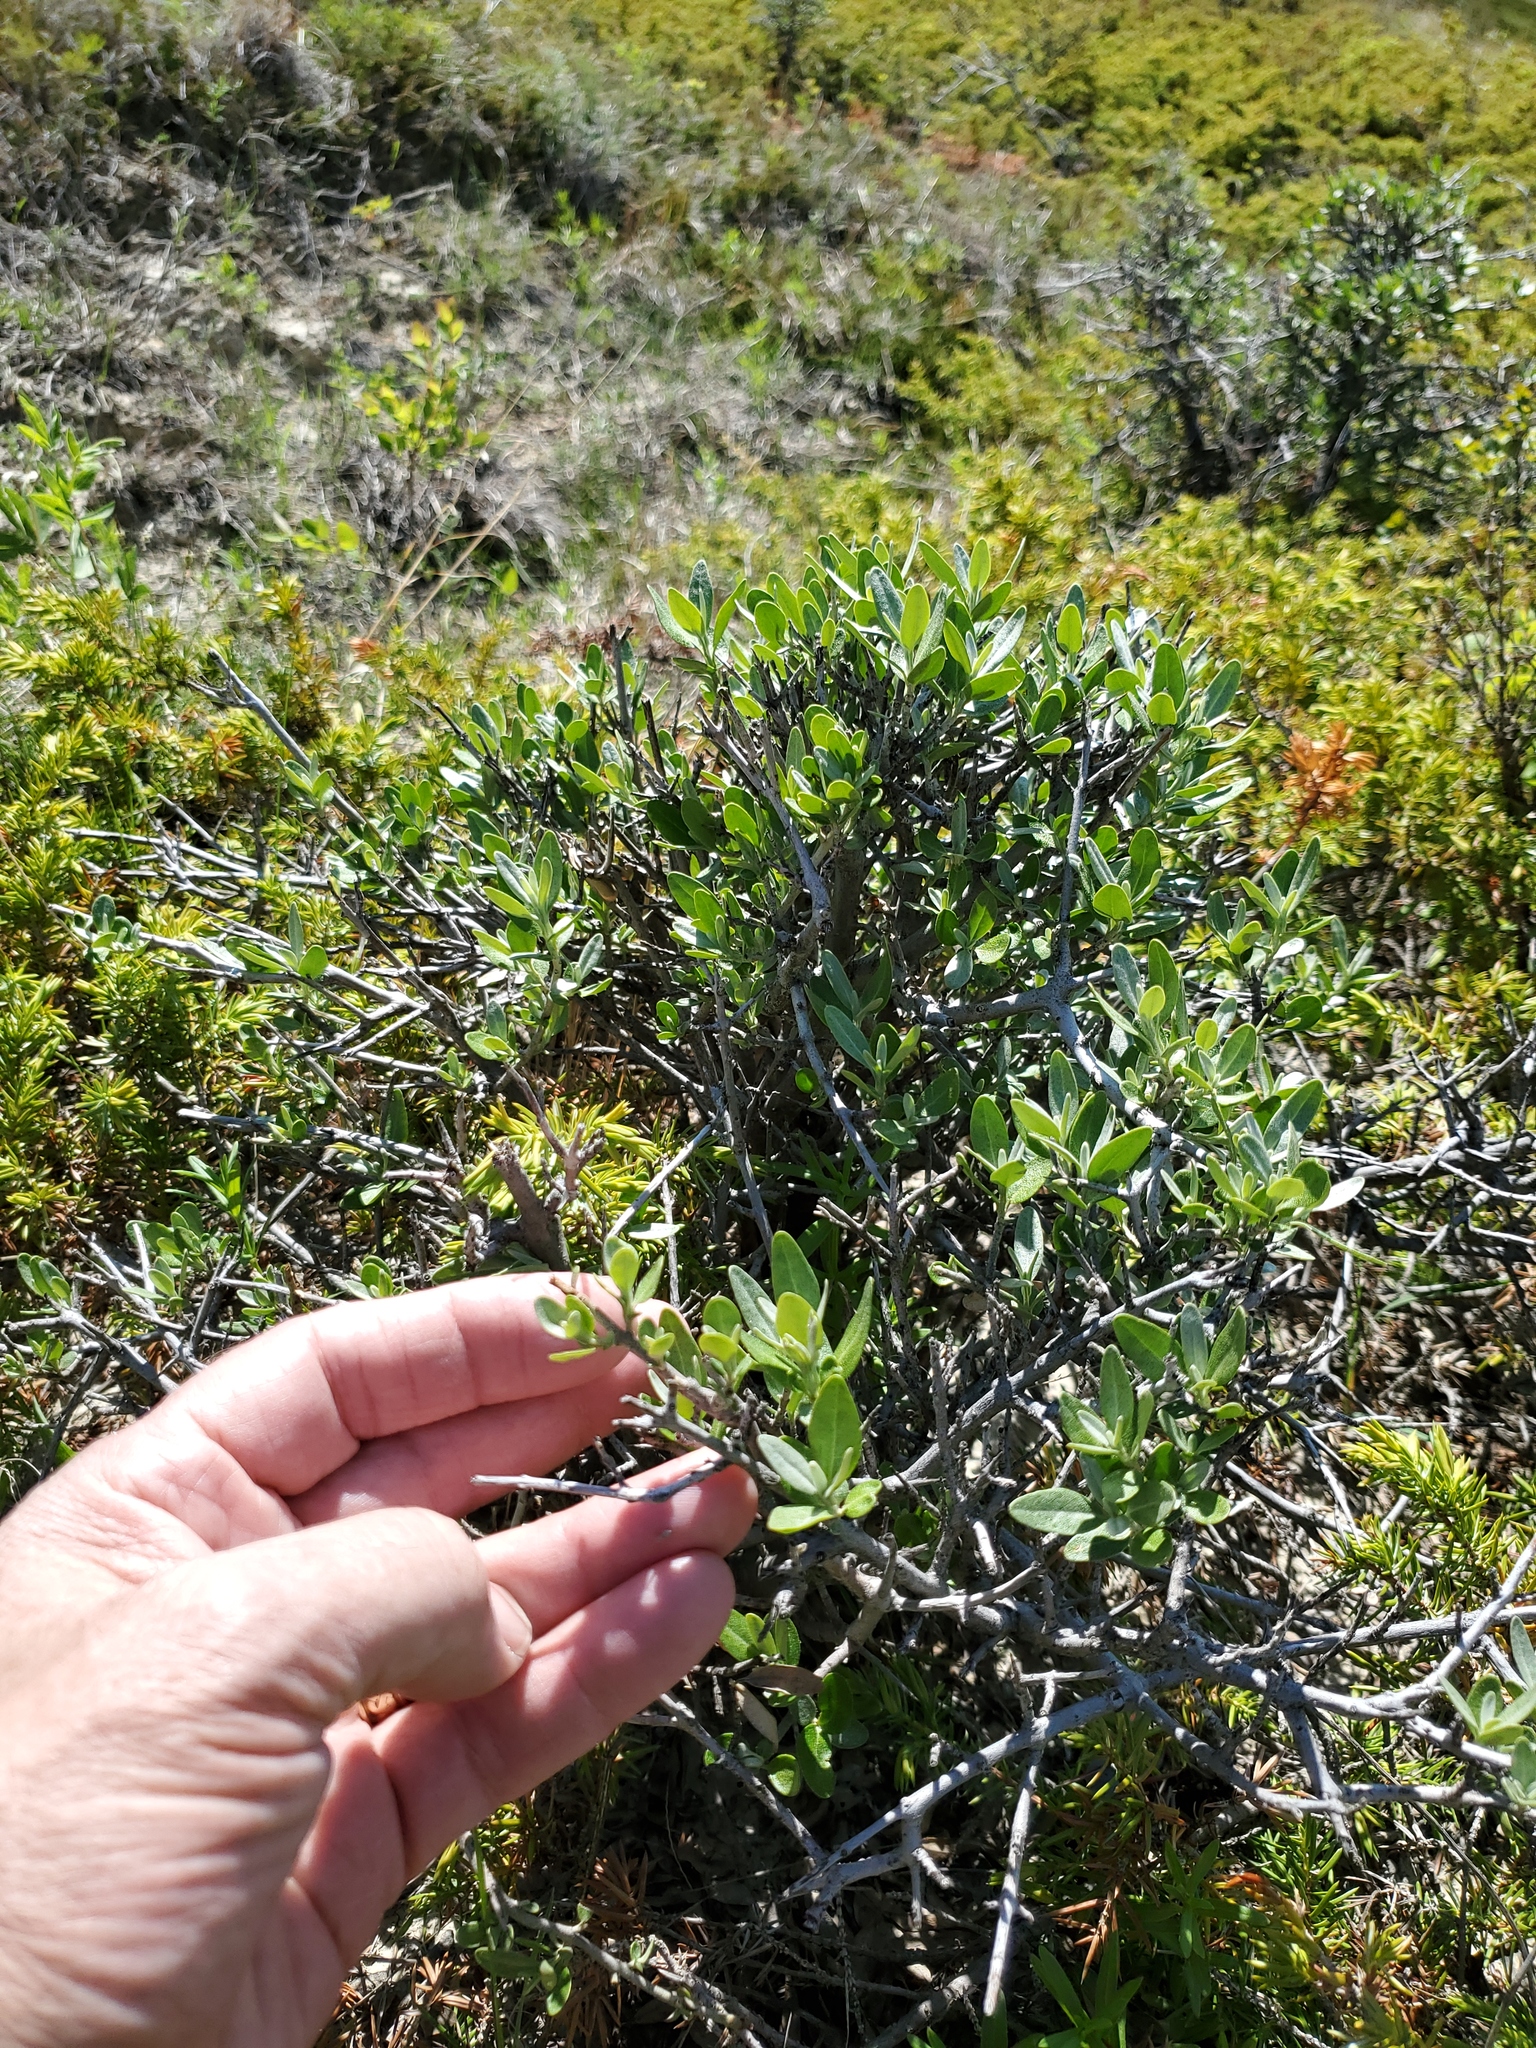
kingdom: Plantae
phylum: Tracheophyta
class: Magnoliopsida
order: Rosales
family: Elaeagnaceae
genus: Shepherdia
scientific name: Shepherdia argentea
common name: Silver buffaloberry
